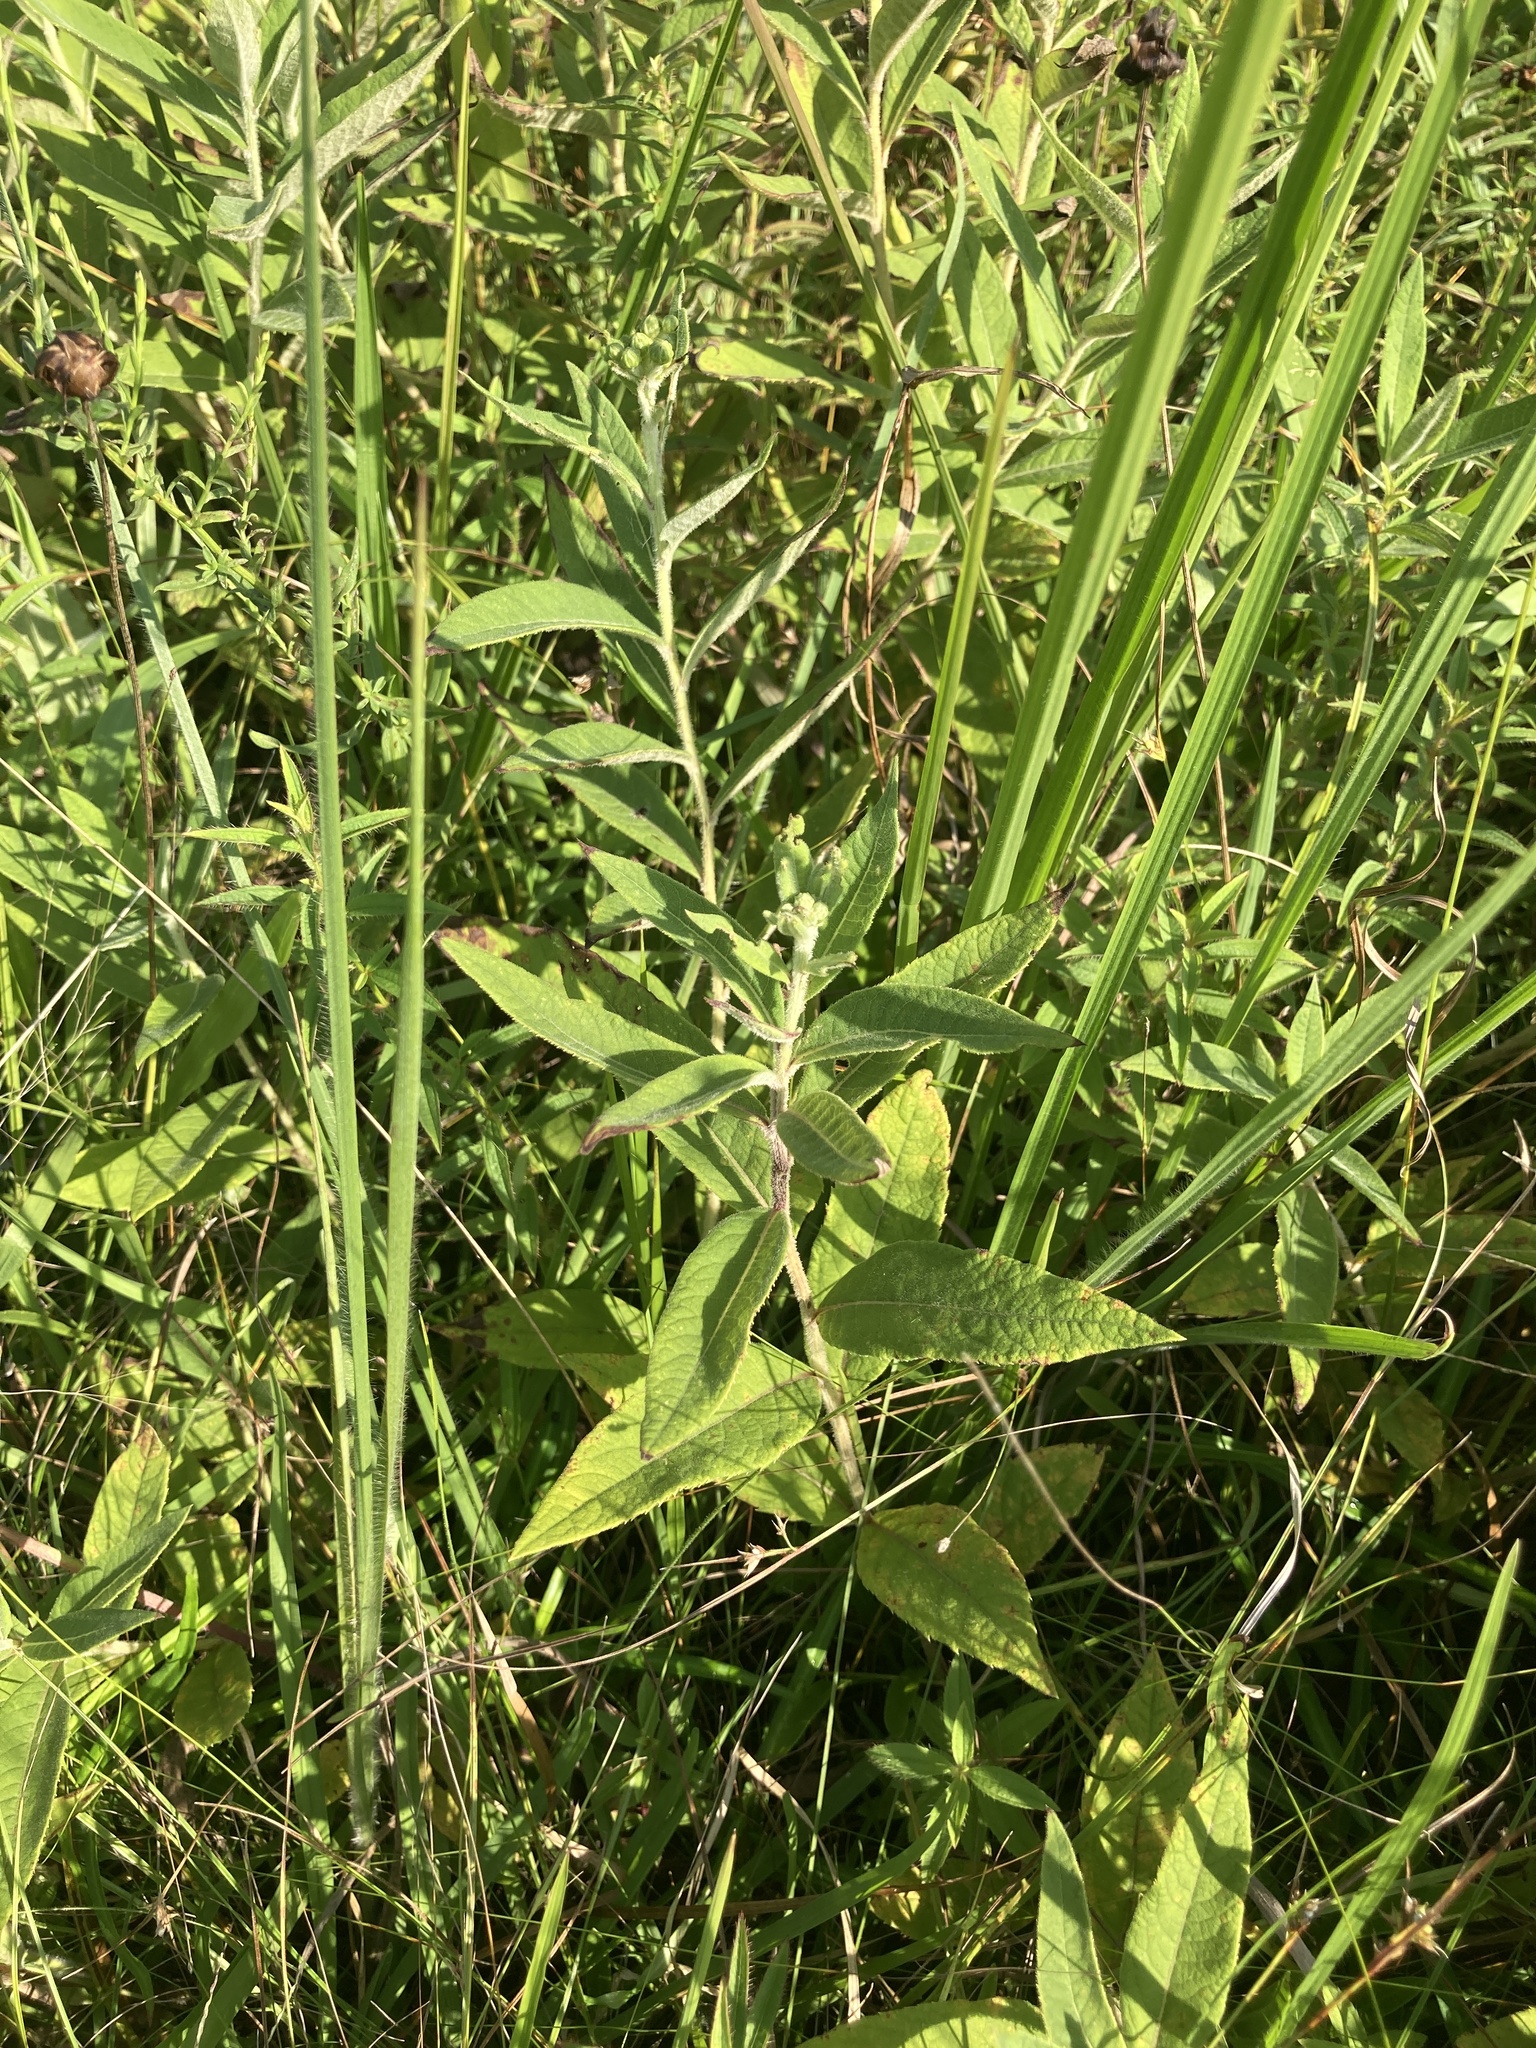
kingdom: Plantae
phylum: Tracheophyta
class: Magnoliopsida
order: Asterales
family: Asteraceae
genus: Vernonia
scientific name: Vernonia missurica
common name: Missouri ironweed
